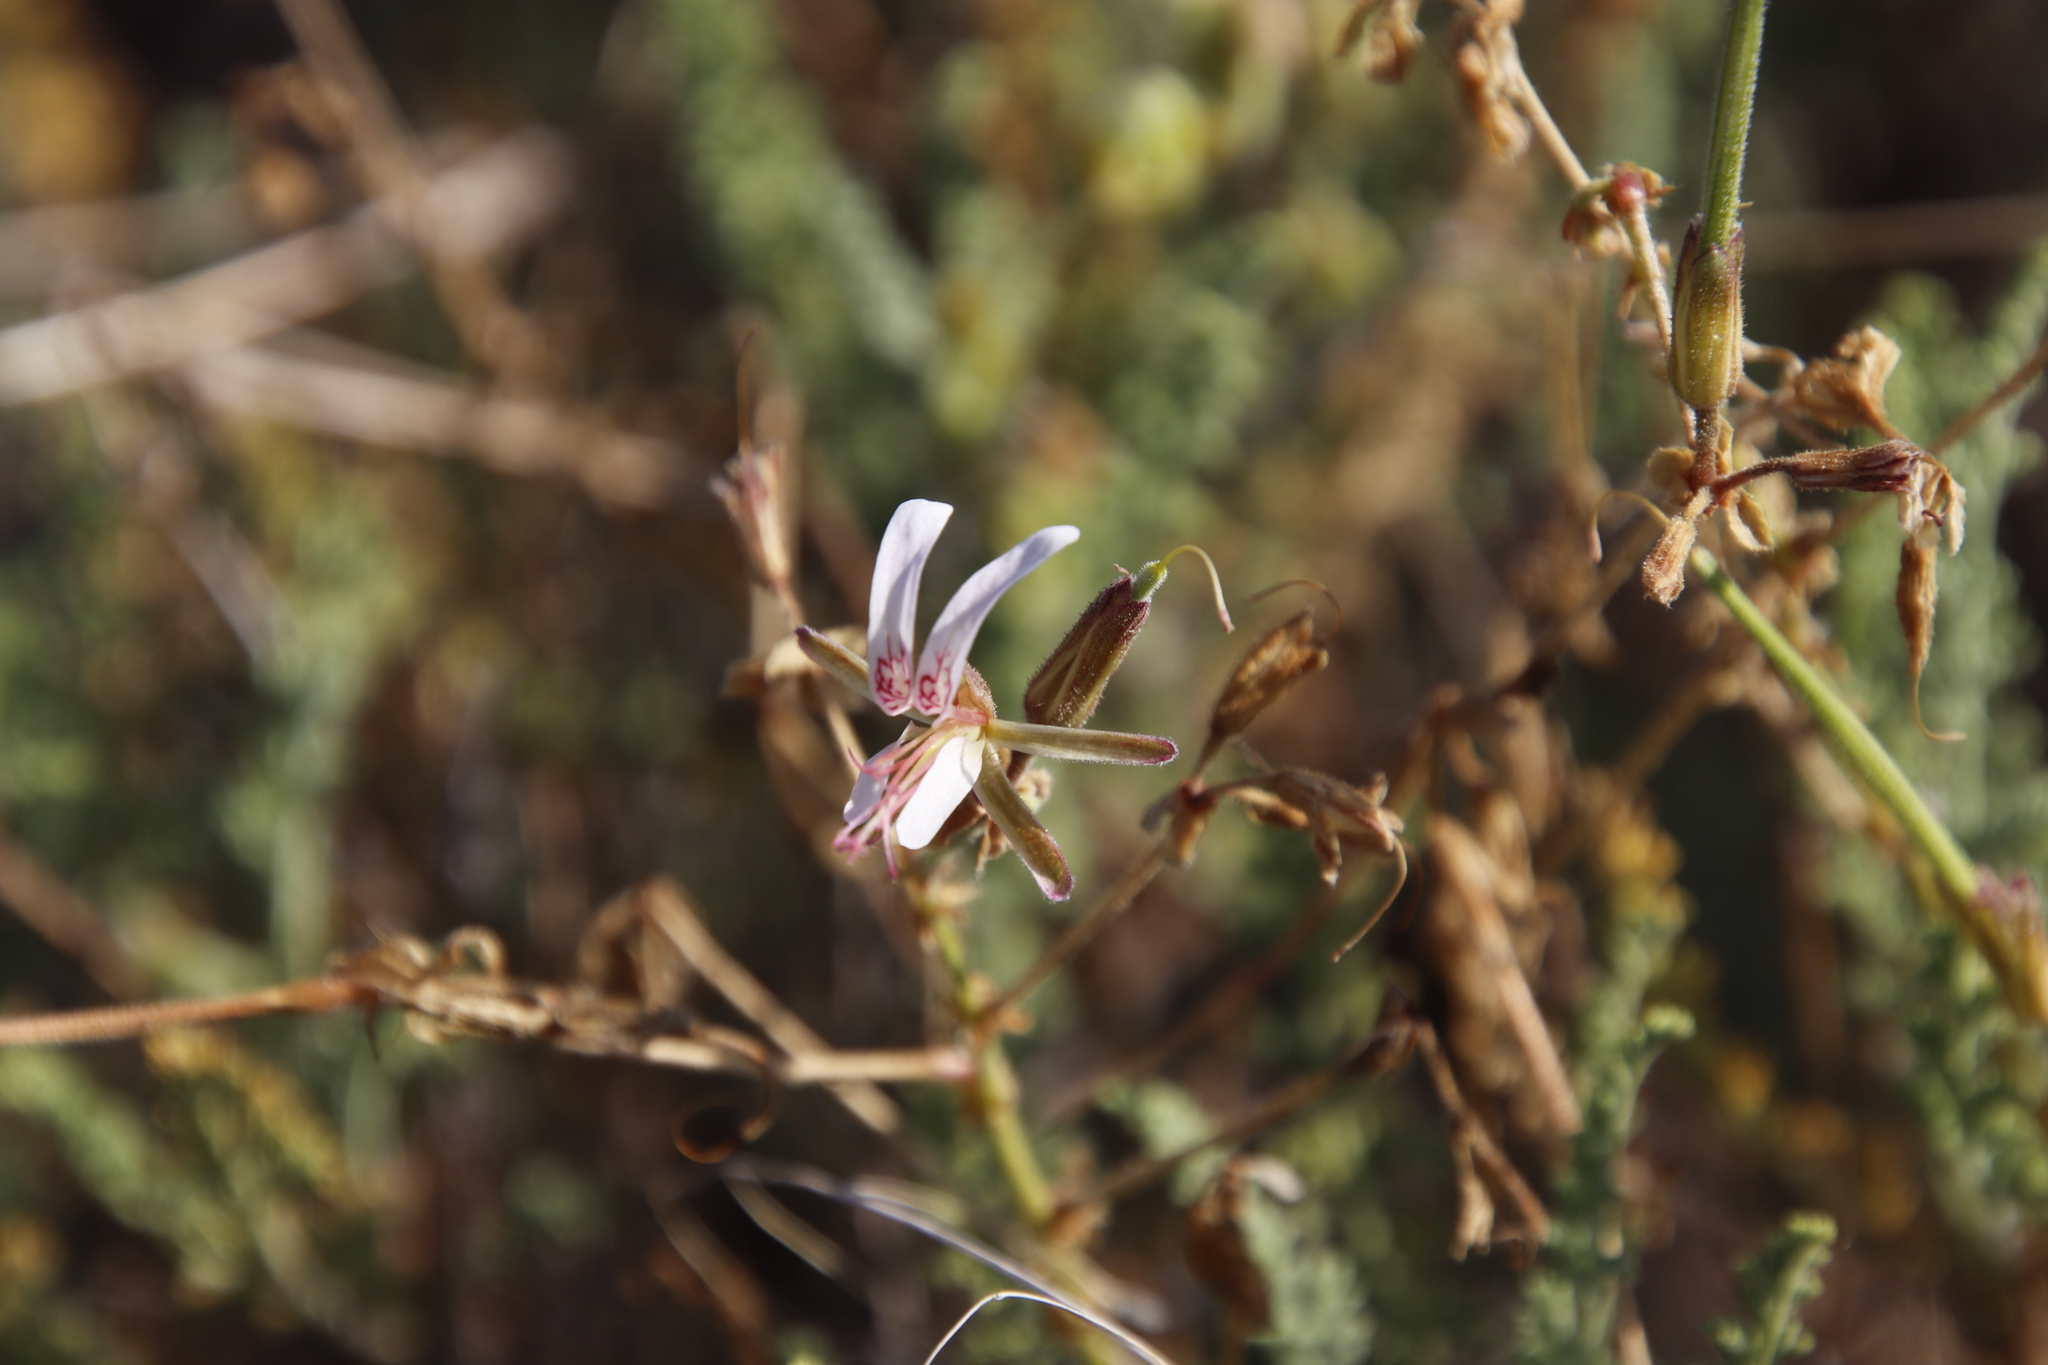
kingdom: Plantae
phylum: Tracheophyta
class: Magnoliopsida
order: Geraniales
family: Geraniaceae
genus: Pelargonium
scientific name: Pelargonium tragacanthoides
